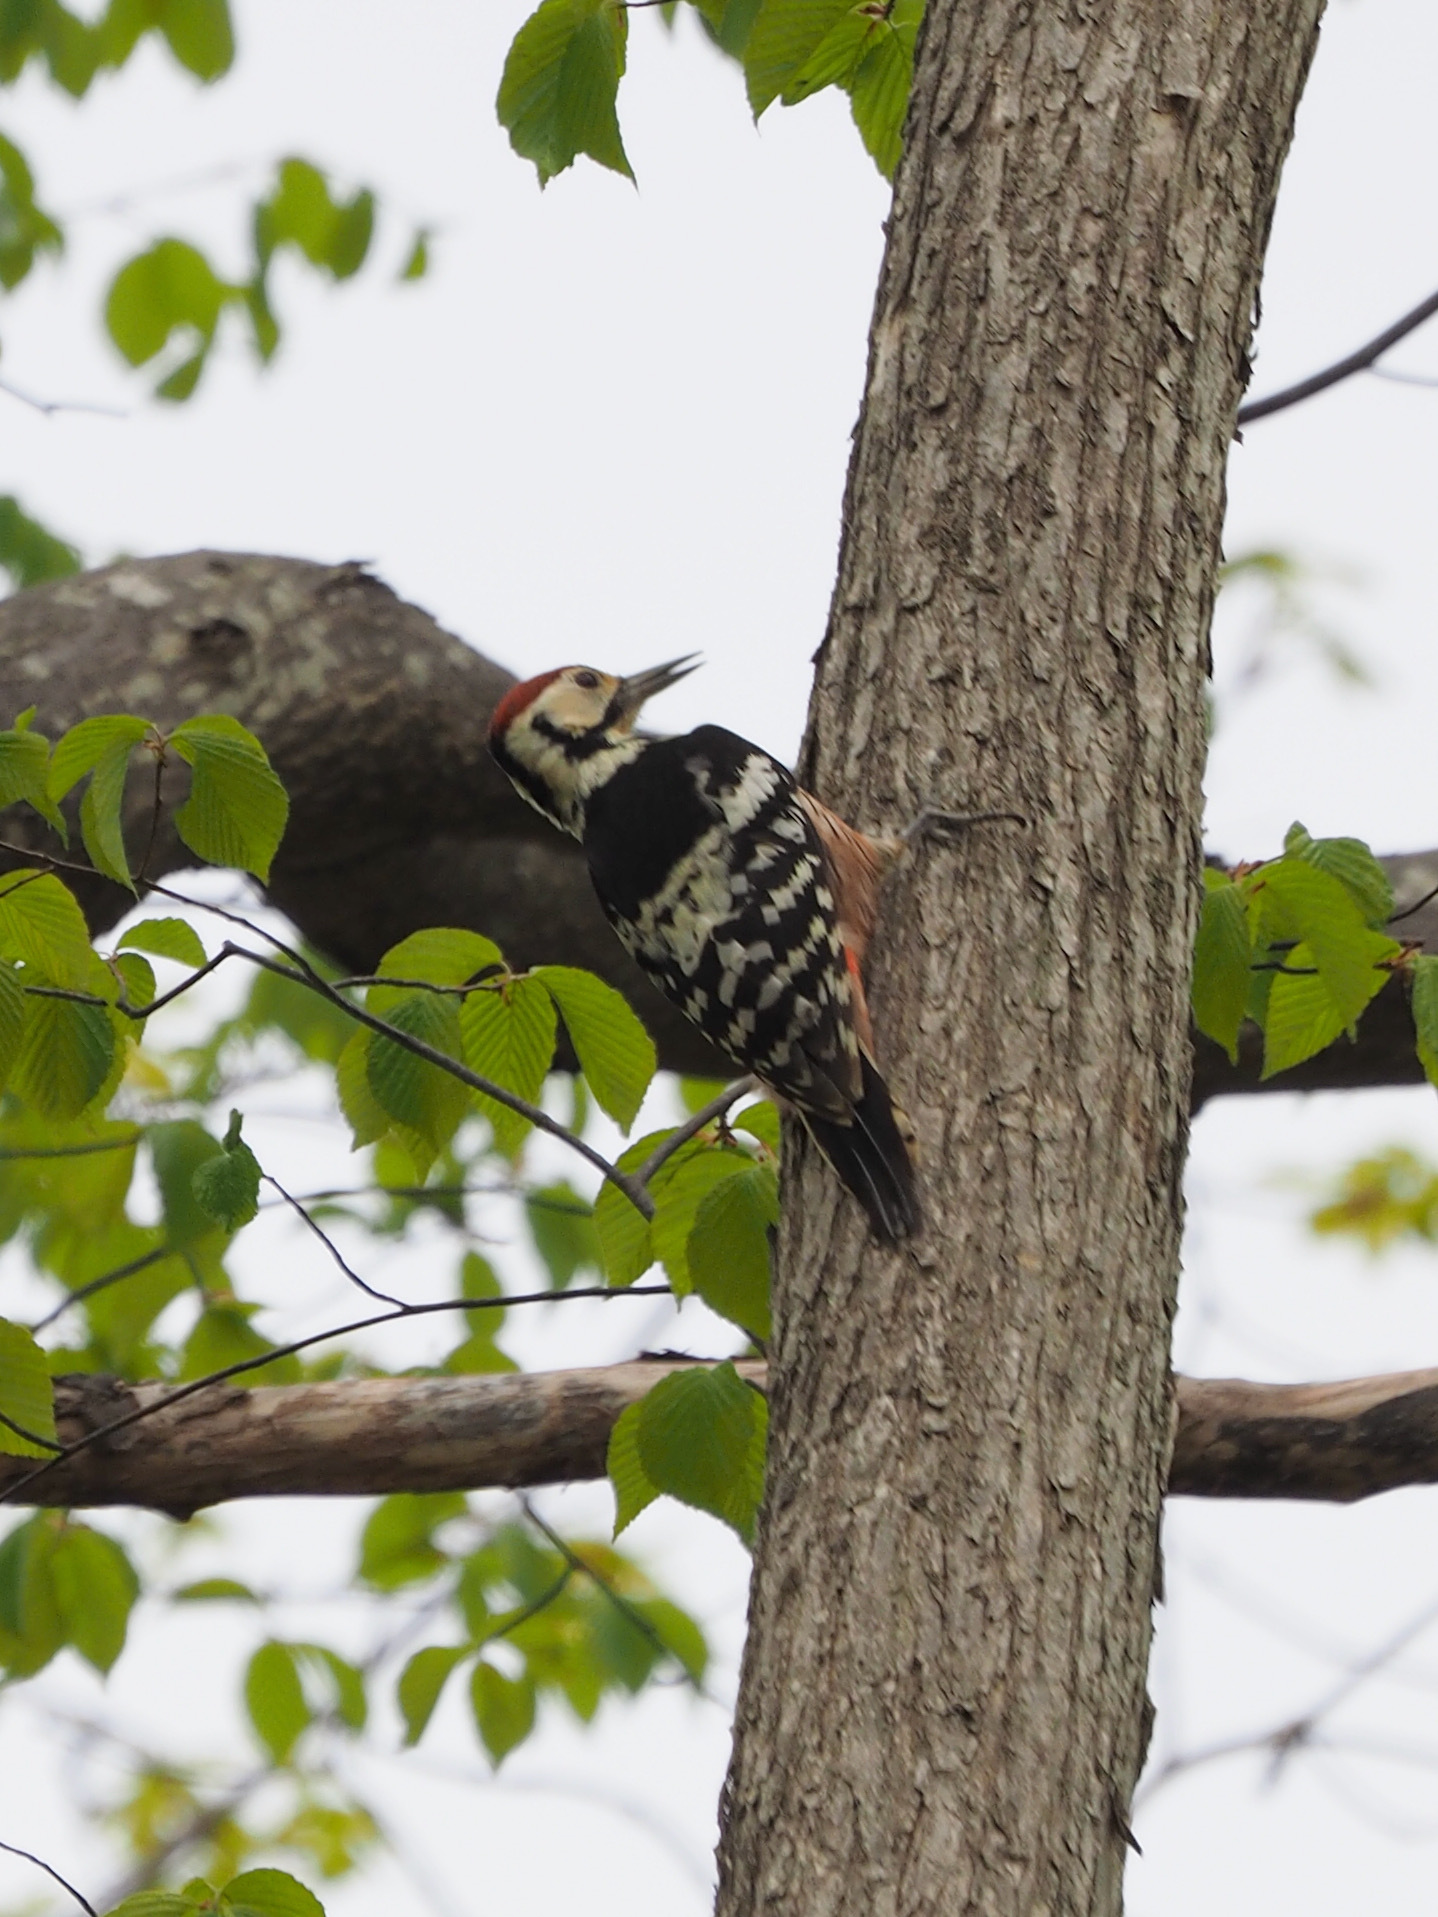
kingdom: Animalia
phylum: Chordata
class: Aves
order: Piciformes
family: Picidae
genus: Dendrocopos
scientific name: Dendrocopos leucotos
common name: White-backed woodpecker
